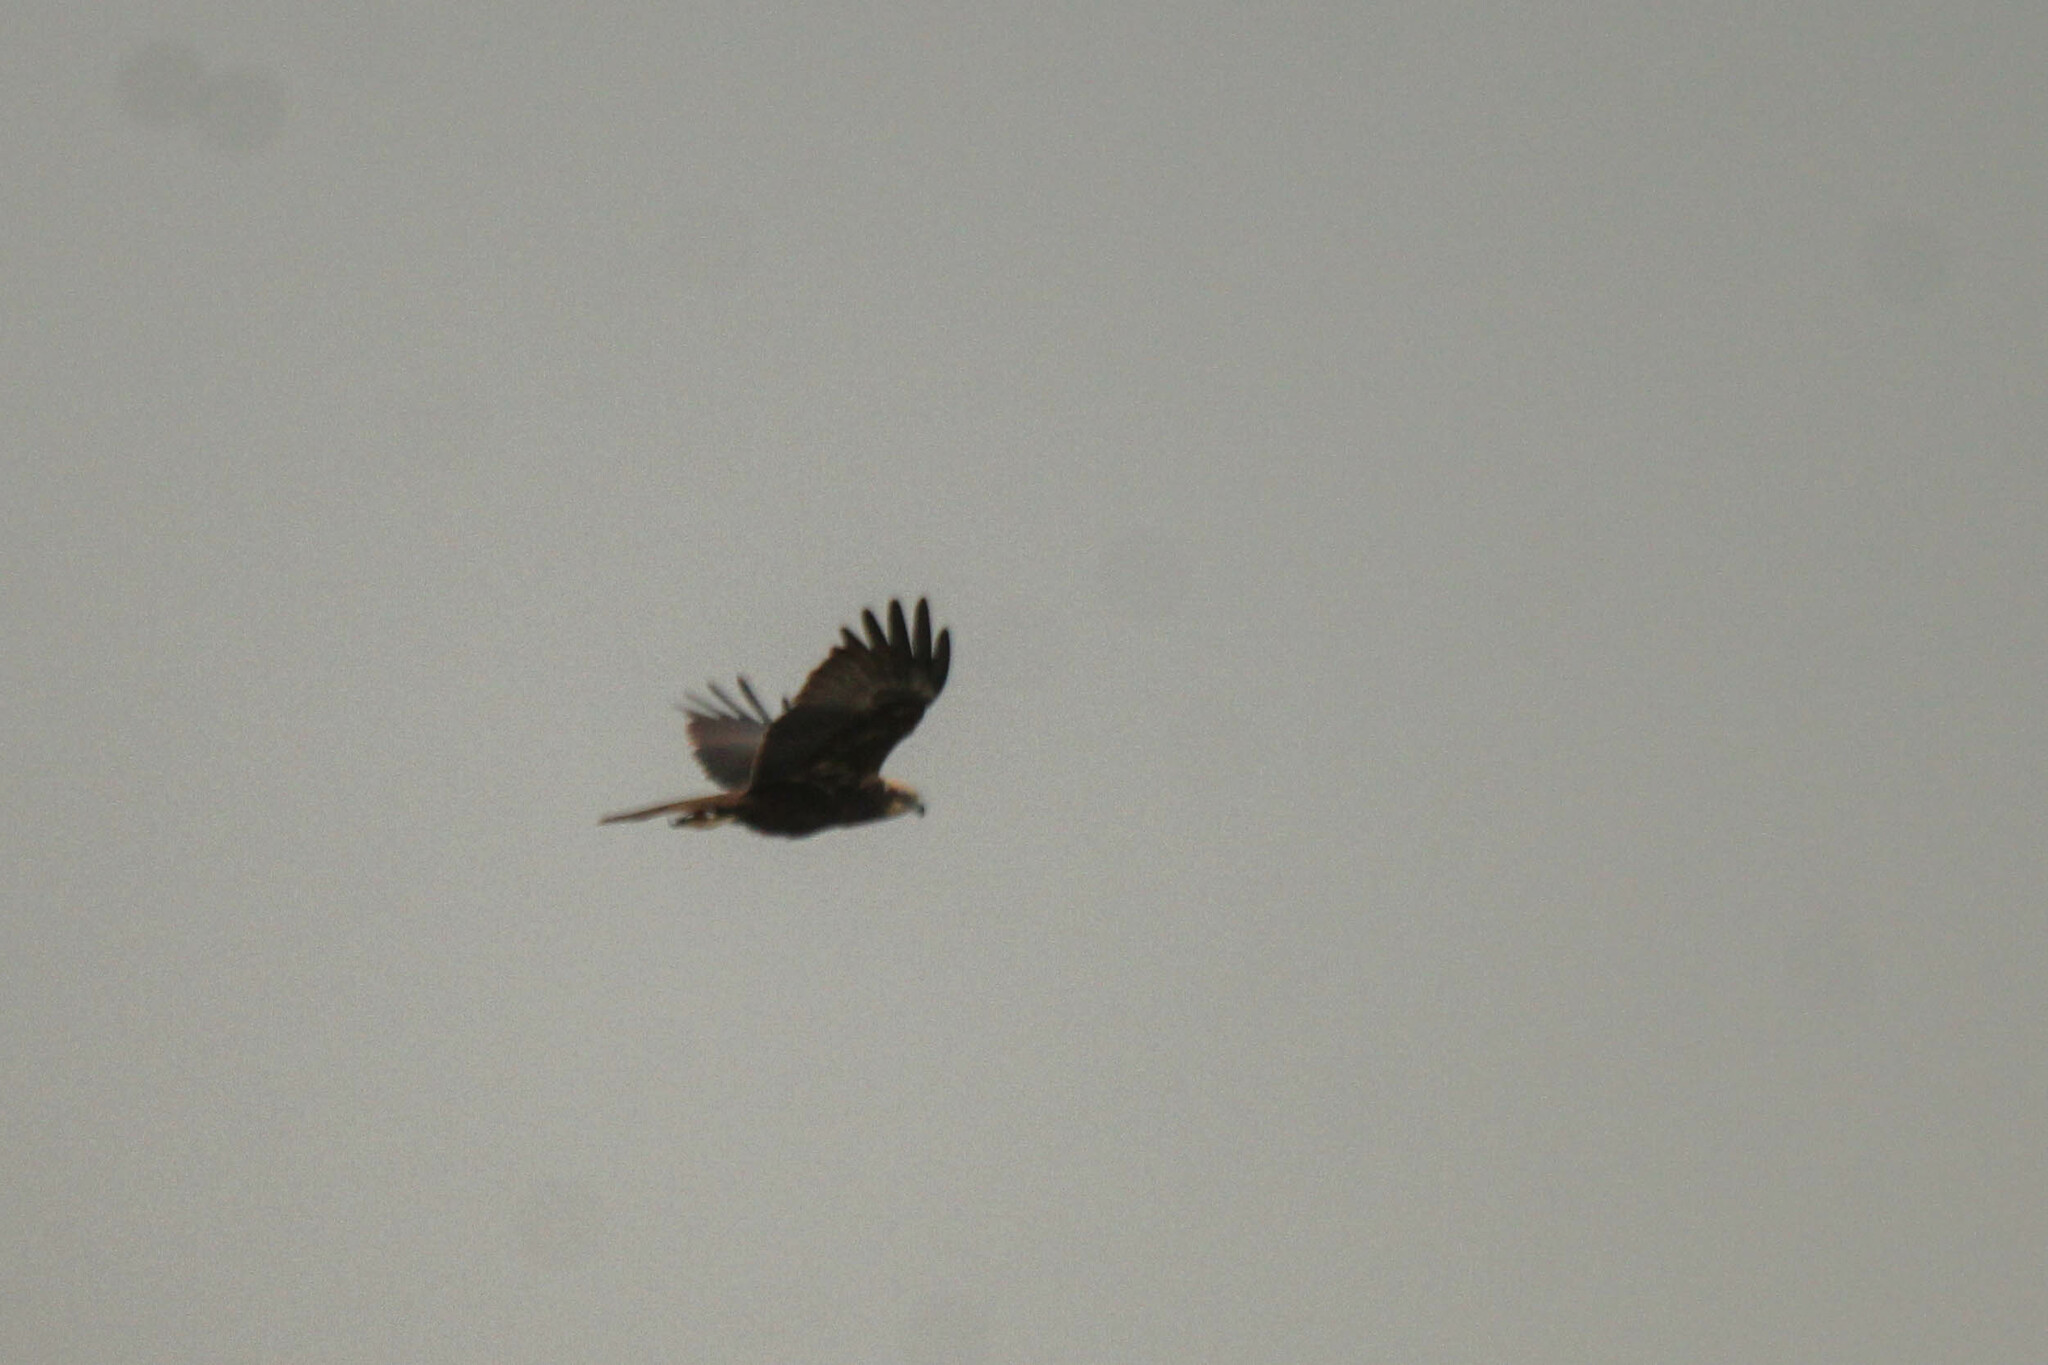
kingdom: Animalia
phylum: Chordata
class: Aves
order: Accipitriformes
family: Accipitridae
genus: Circus
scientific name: Circus aeruginosus
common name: Western marsh harrier
